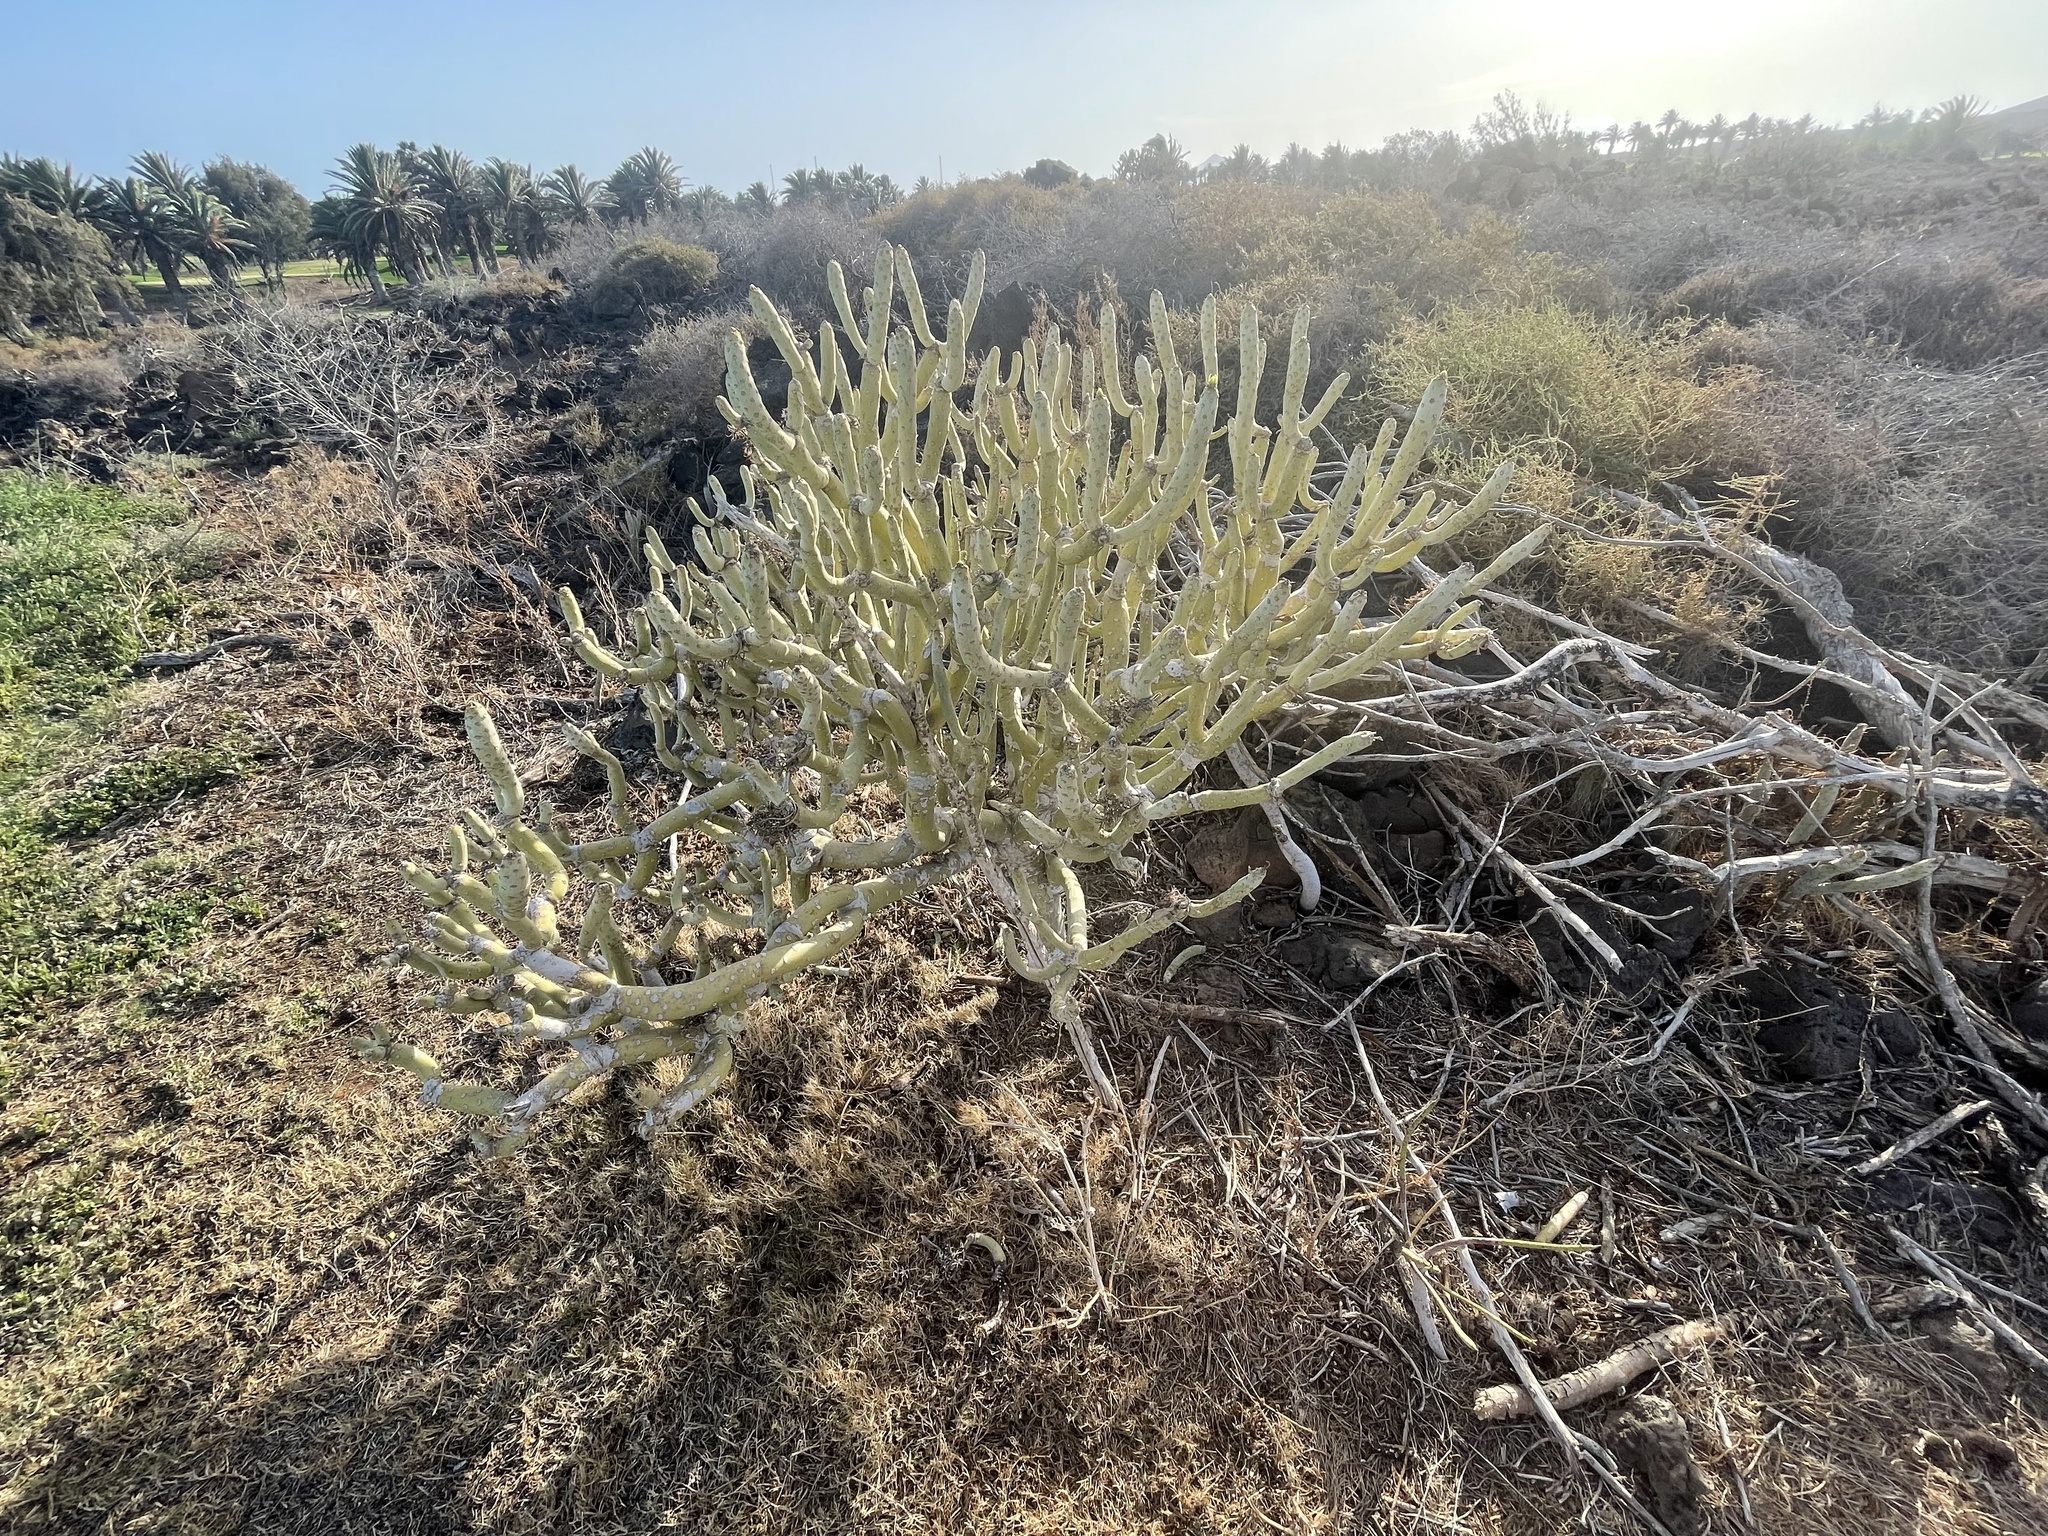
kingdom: Plantae
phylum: Tracheophyta
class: Magnoliopsida
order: Asterales
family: Asteraceae
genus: Kleinia
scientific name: Kleinia neriifolia
